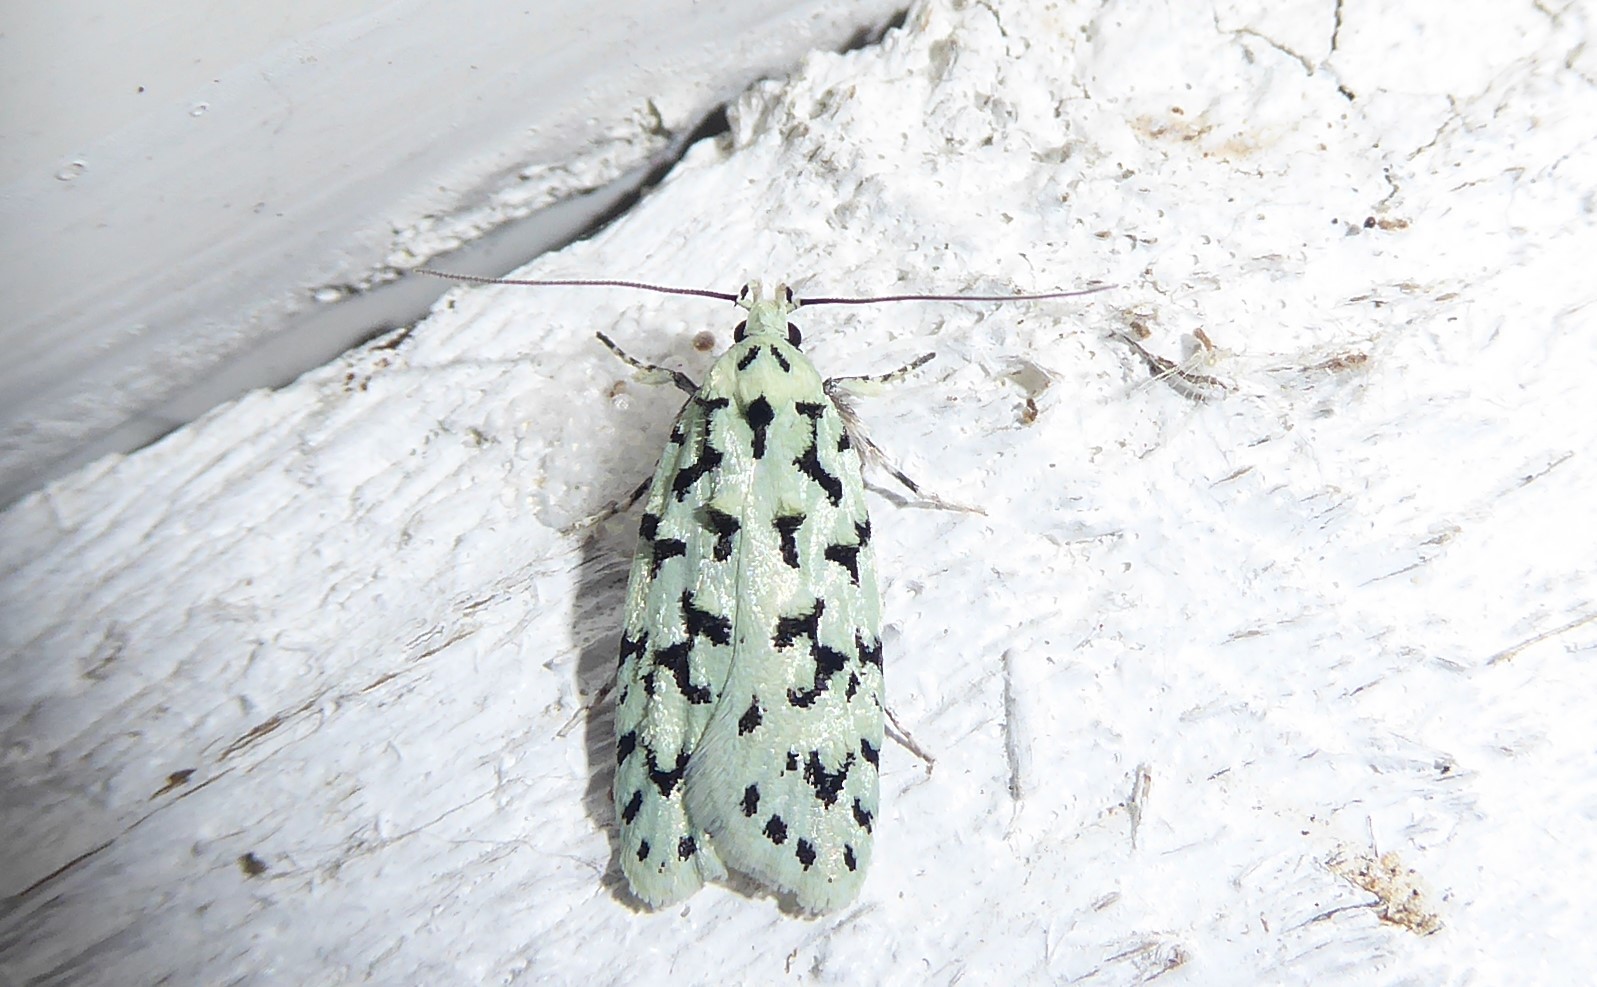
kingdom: Animalia
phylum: Arthropoda
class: Insecta
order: Lepidoptera
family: Oecophoridae
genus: Izatha
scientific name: Izatha huttoni
